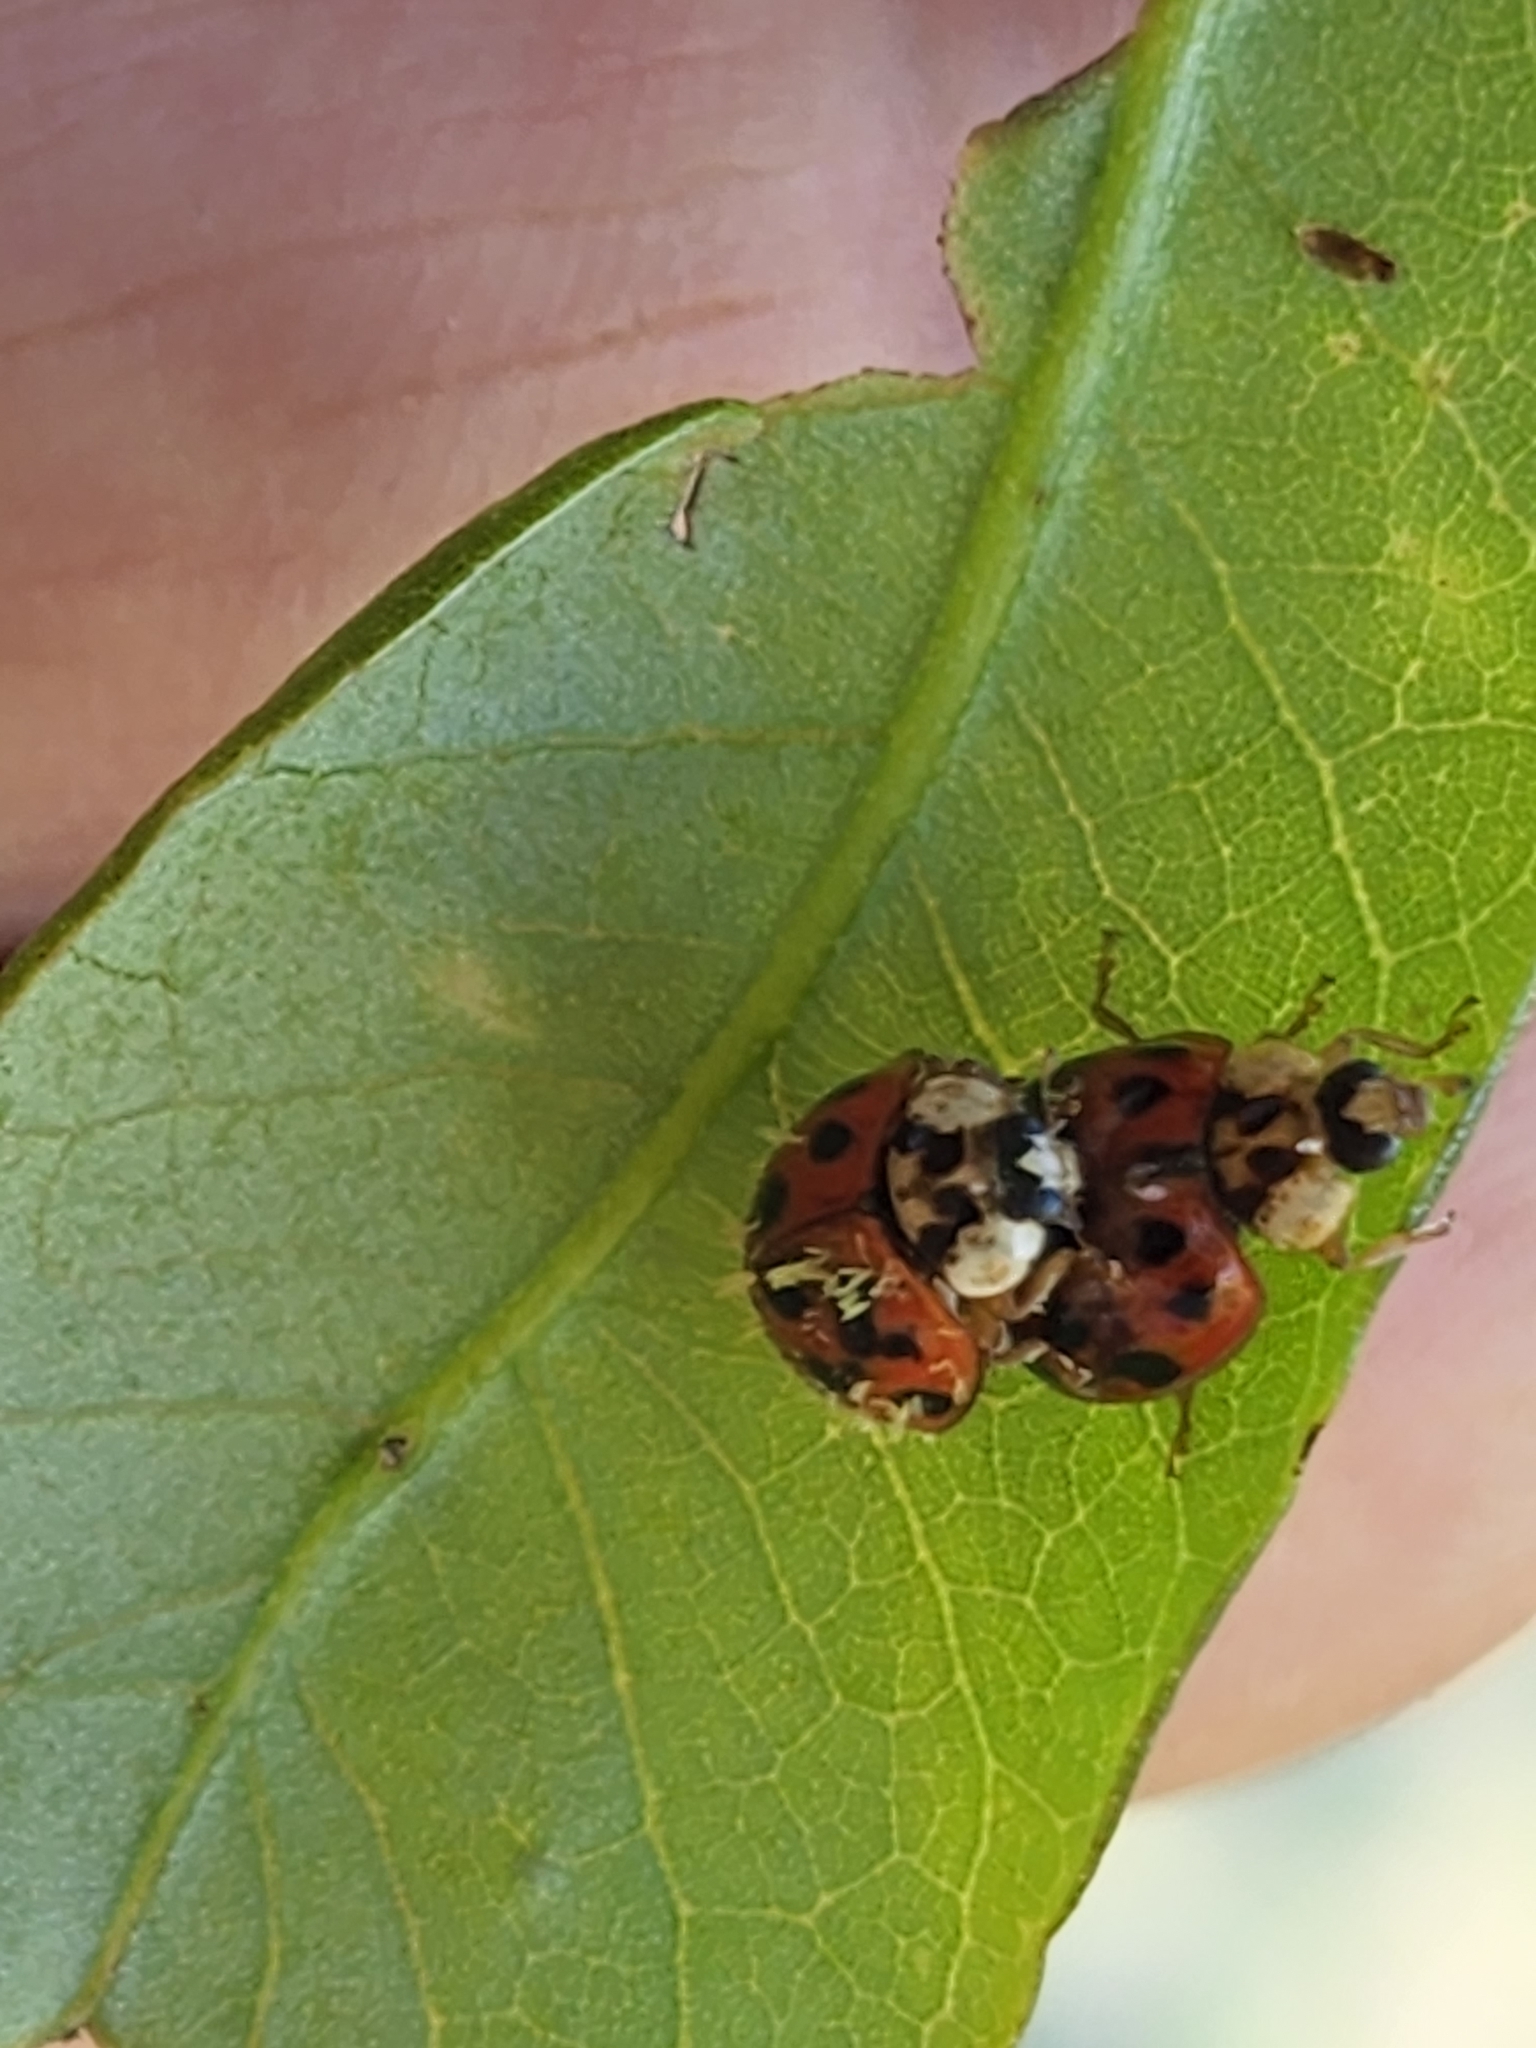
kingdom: Animalia
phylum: Arthropoda
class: Insecta
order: Coleoptera
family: Coccinellidae
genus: Harmonia
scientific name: Harmonia axyridis
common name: Harlequin ladybird
